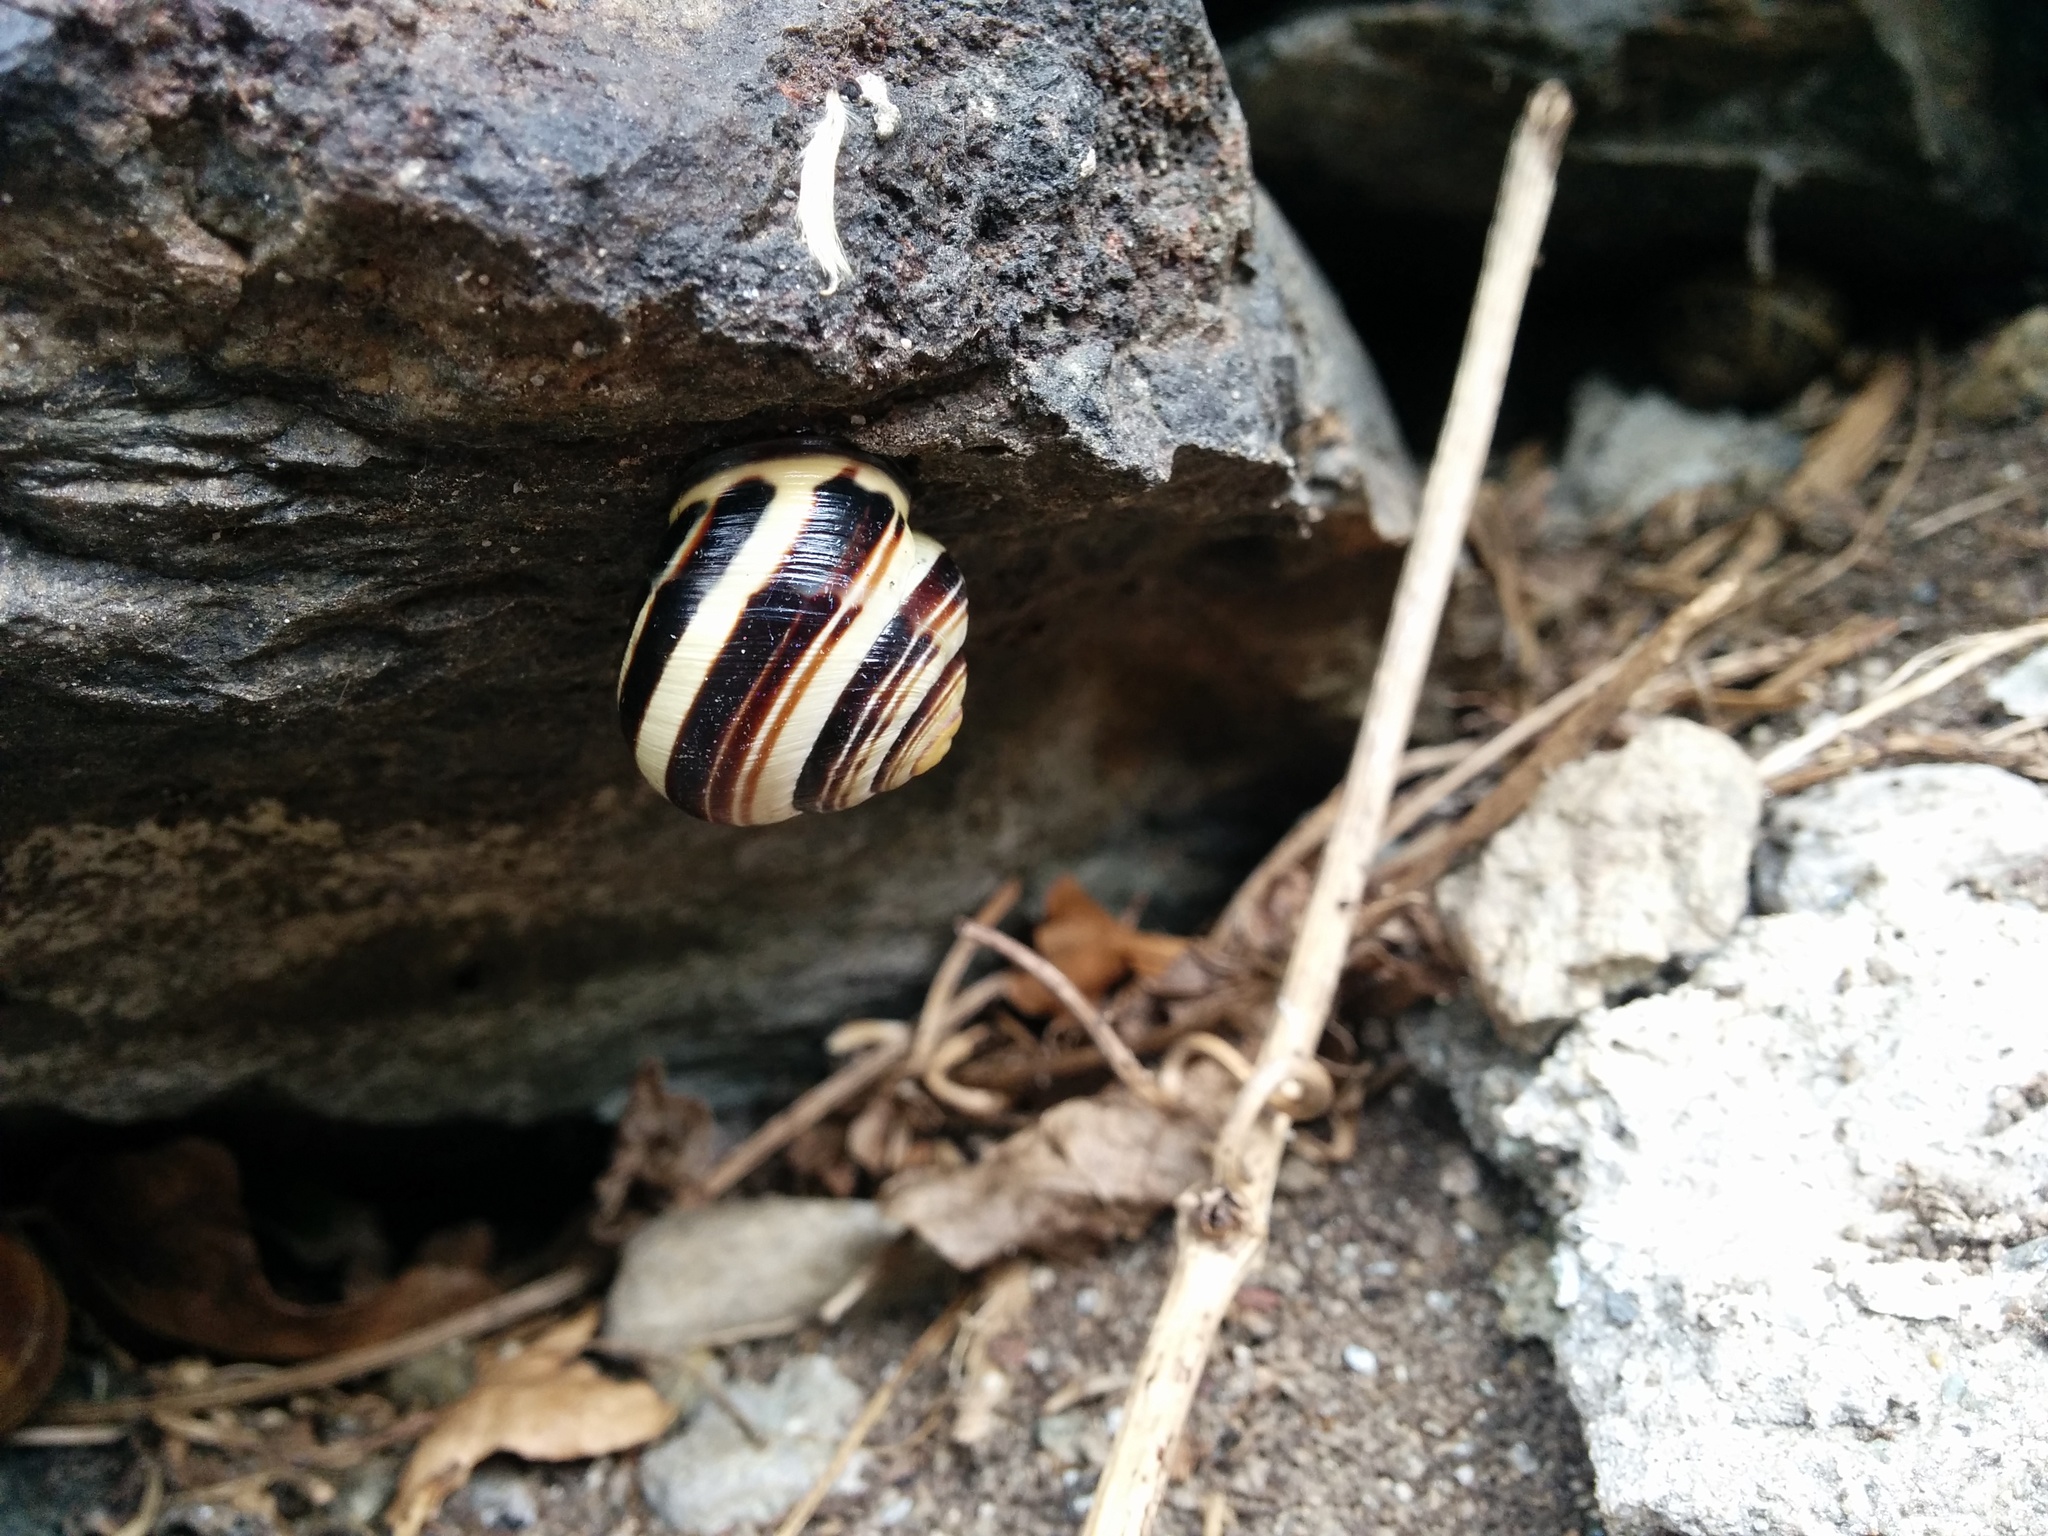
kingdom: Animalia
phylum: Mollusca
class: Gastropoda
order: Stylommatophora
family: Helicidae
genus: Cepaea
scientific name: Cepaea nemoralis
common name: Grovesnail
